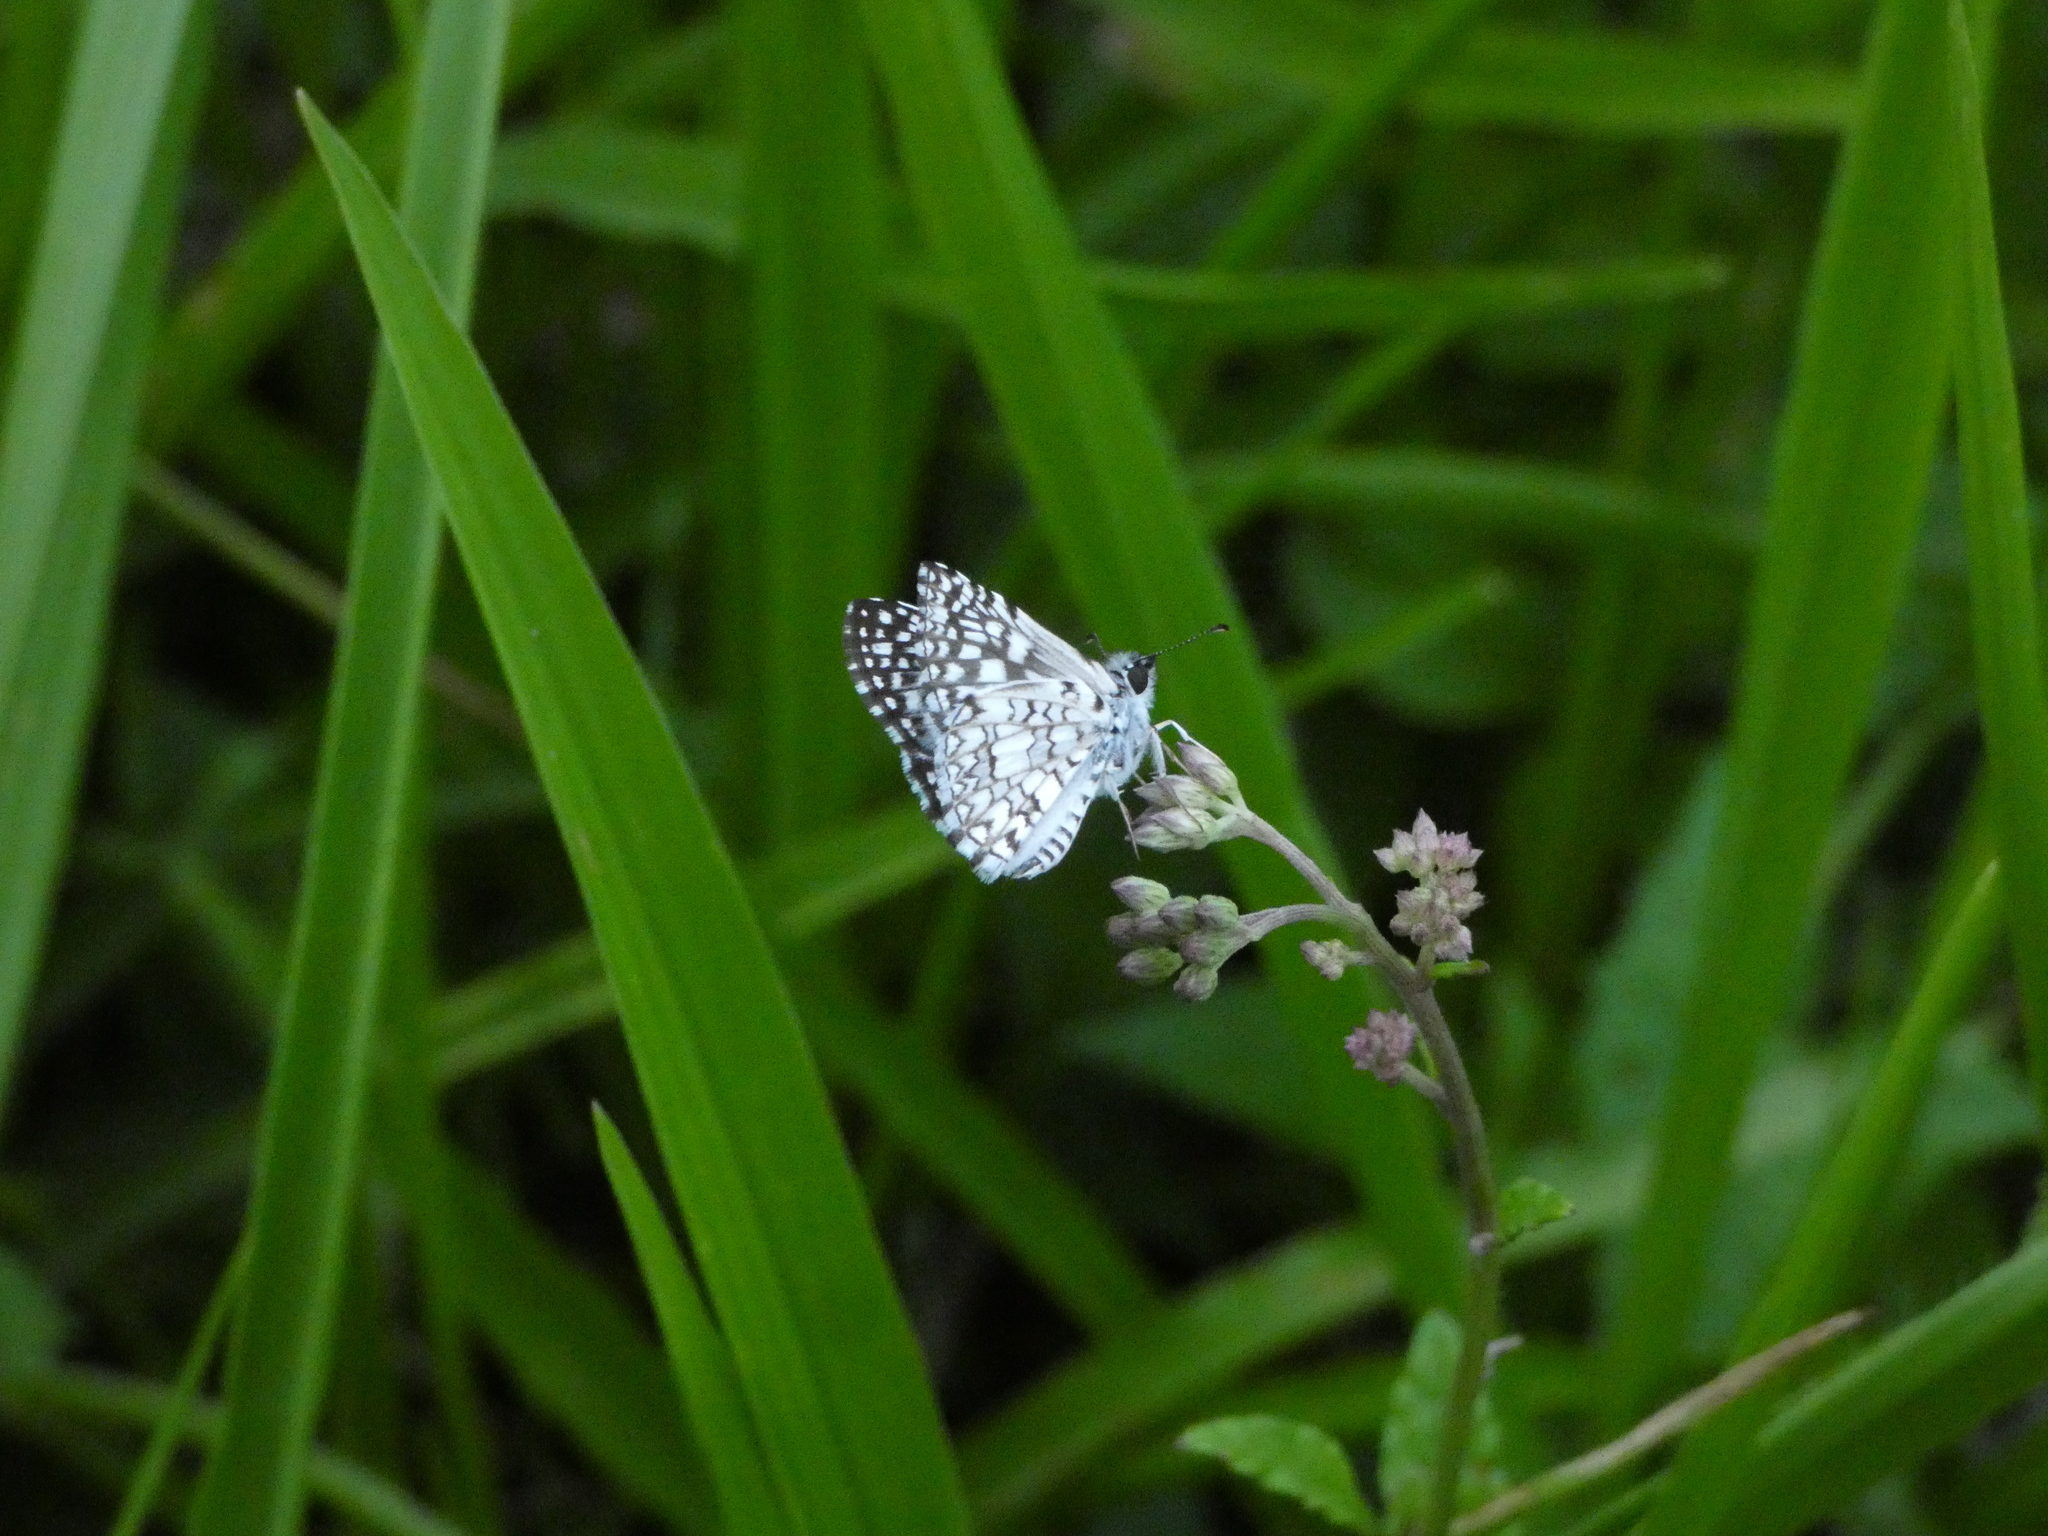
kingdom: Animalia
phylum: Arthropoda
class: Insecta
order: Lepidoptera
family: Hesperiidae
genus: Pyrgus
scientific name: Pyrgus oileus
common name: Tropical checkered-skipper
